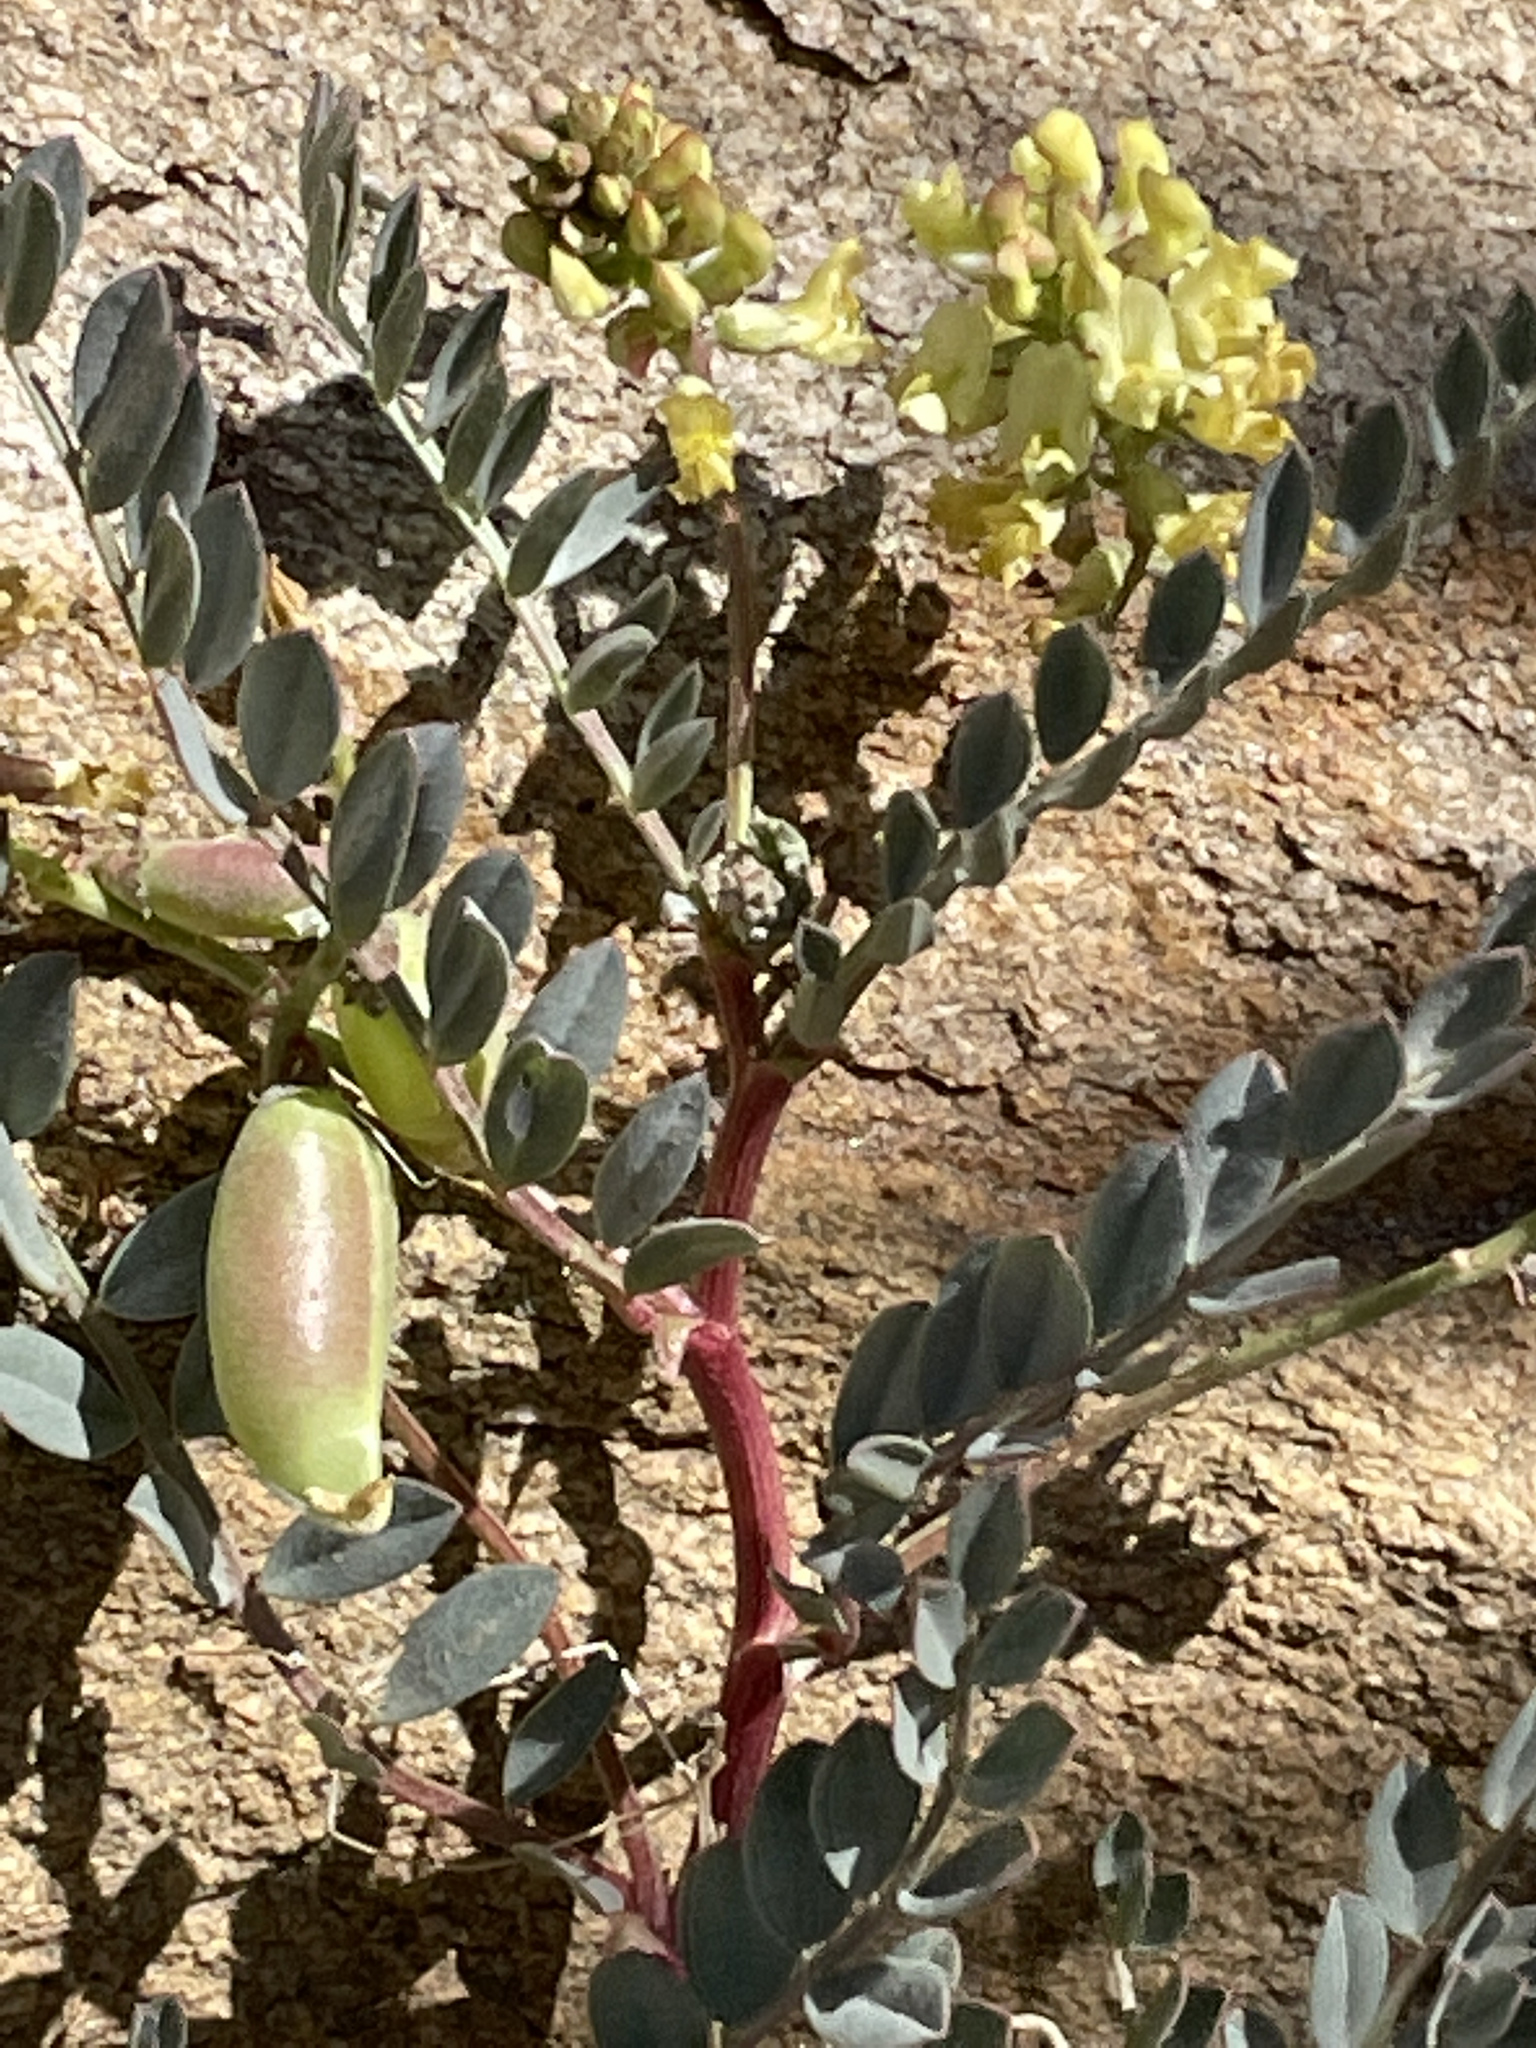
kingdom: Plantae
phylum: Tracheophyta
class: Magnoliopsida
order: Fabales
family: Fabaceae
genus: Astragalus
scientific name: Astragalus douglasii
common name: Jacumba milkvetch
